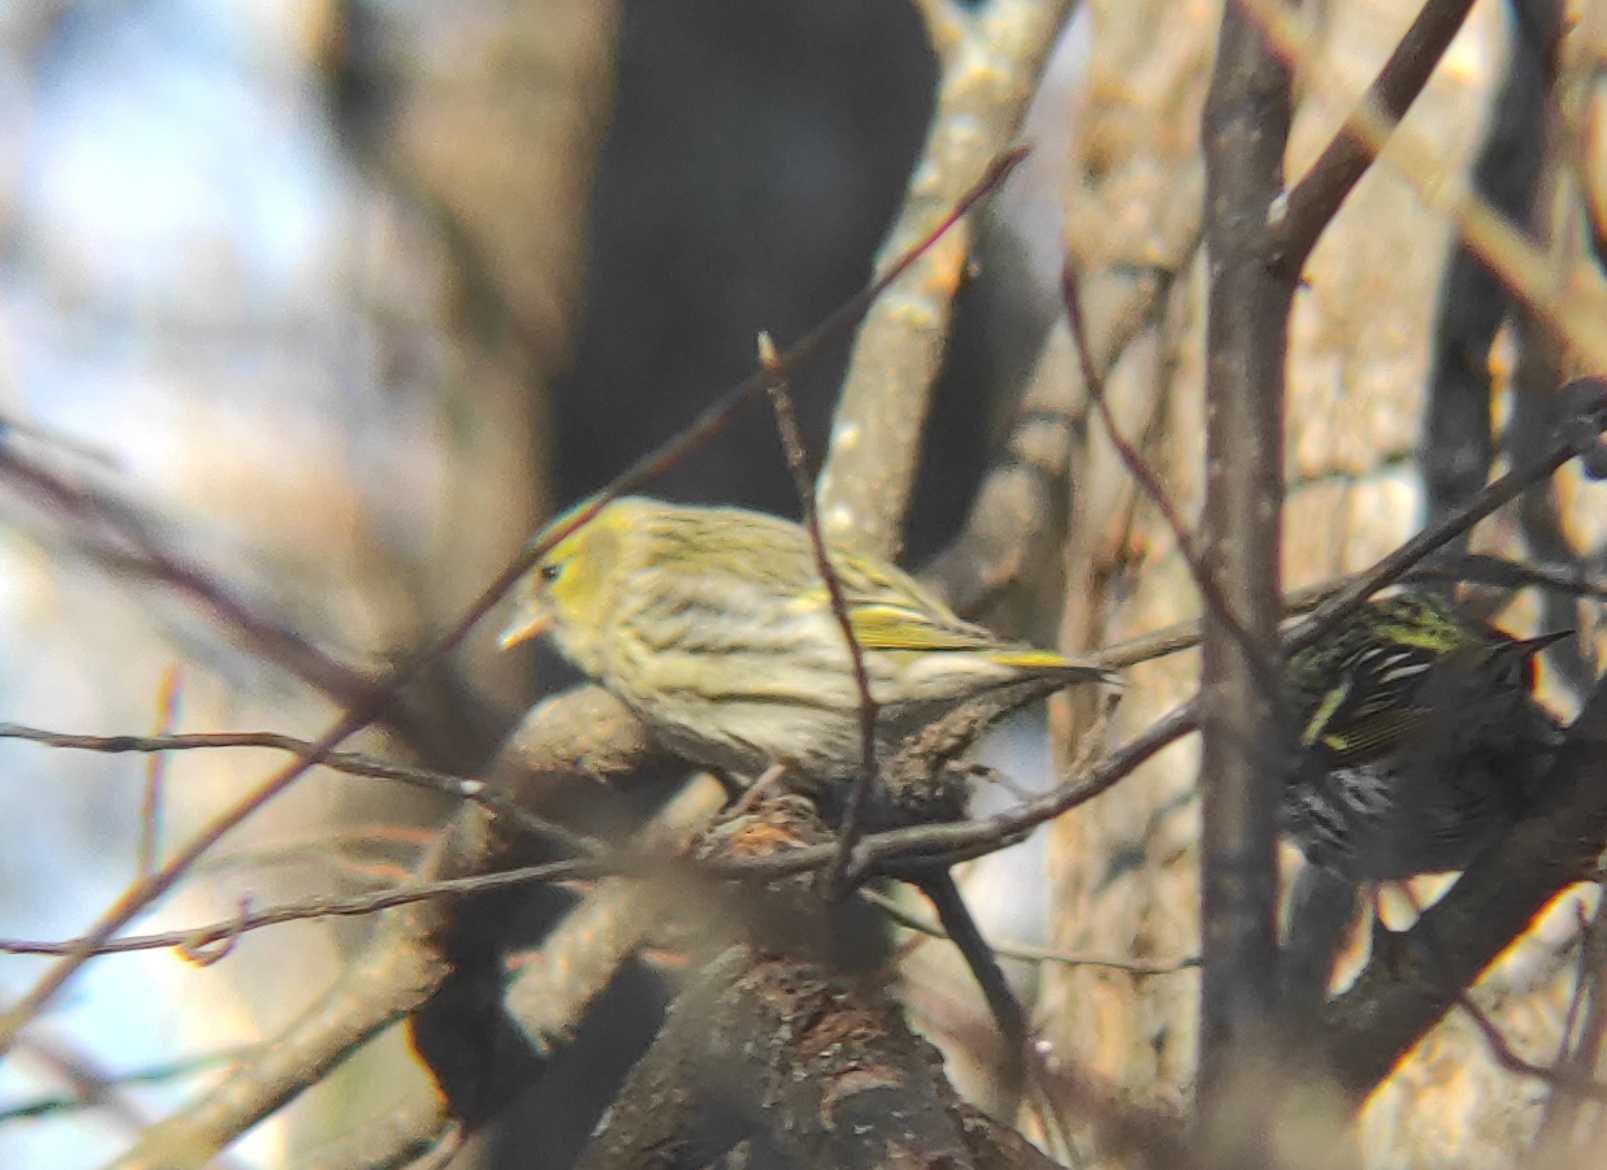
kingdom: Animalia
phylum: Chordata
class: Aves
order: Passeriformes
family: Fringillidae
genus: Spinus
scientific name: Spinus spinus
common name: Eurasian siskin
